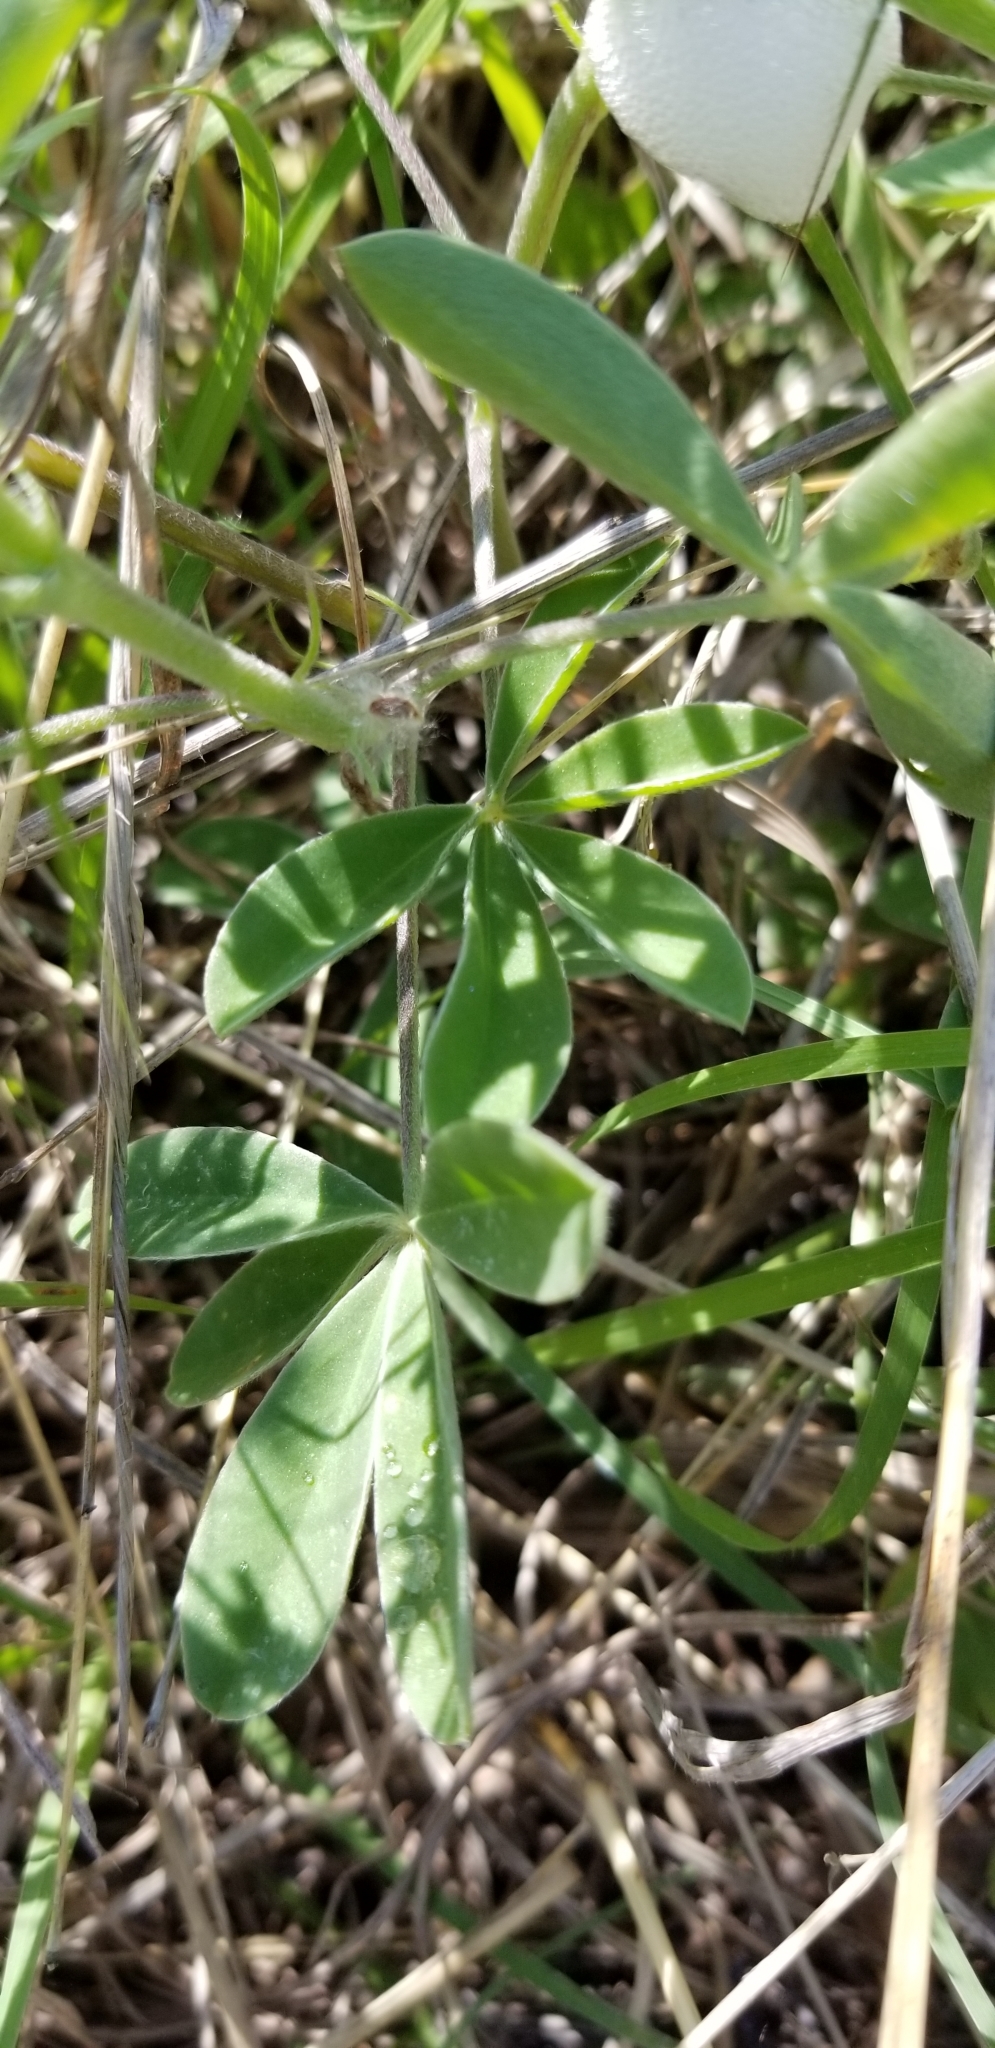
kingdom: Plantae
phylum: Tracheophyta
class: Magnoliopsida
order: Fabales
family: Fabaceae
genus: Lupinus
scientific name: Lupinus texensis
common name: Texas bluebonnet
